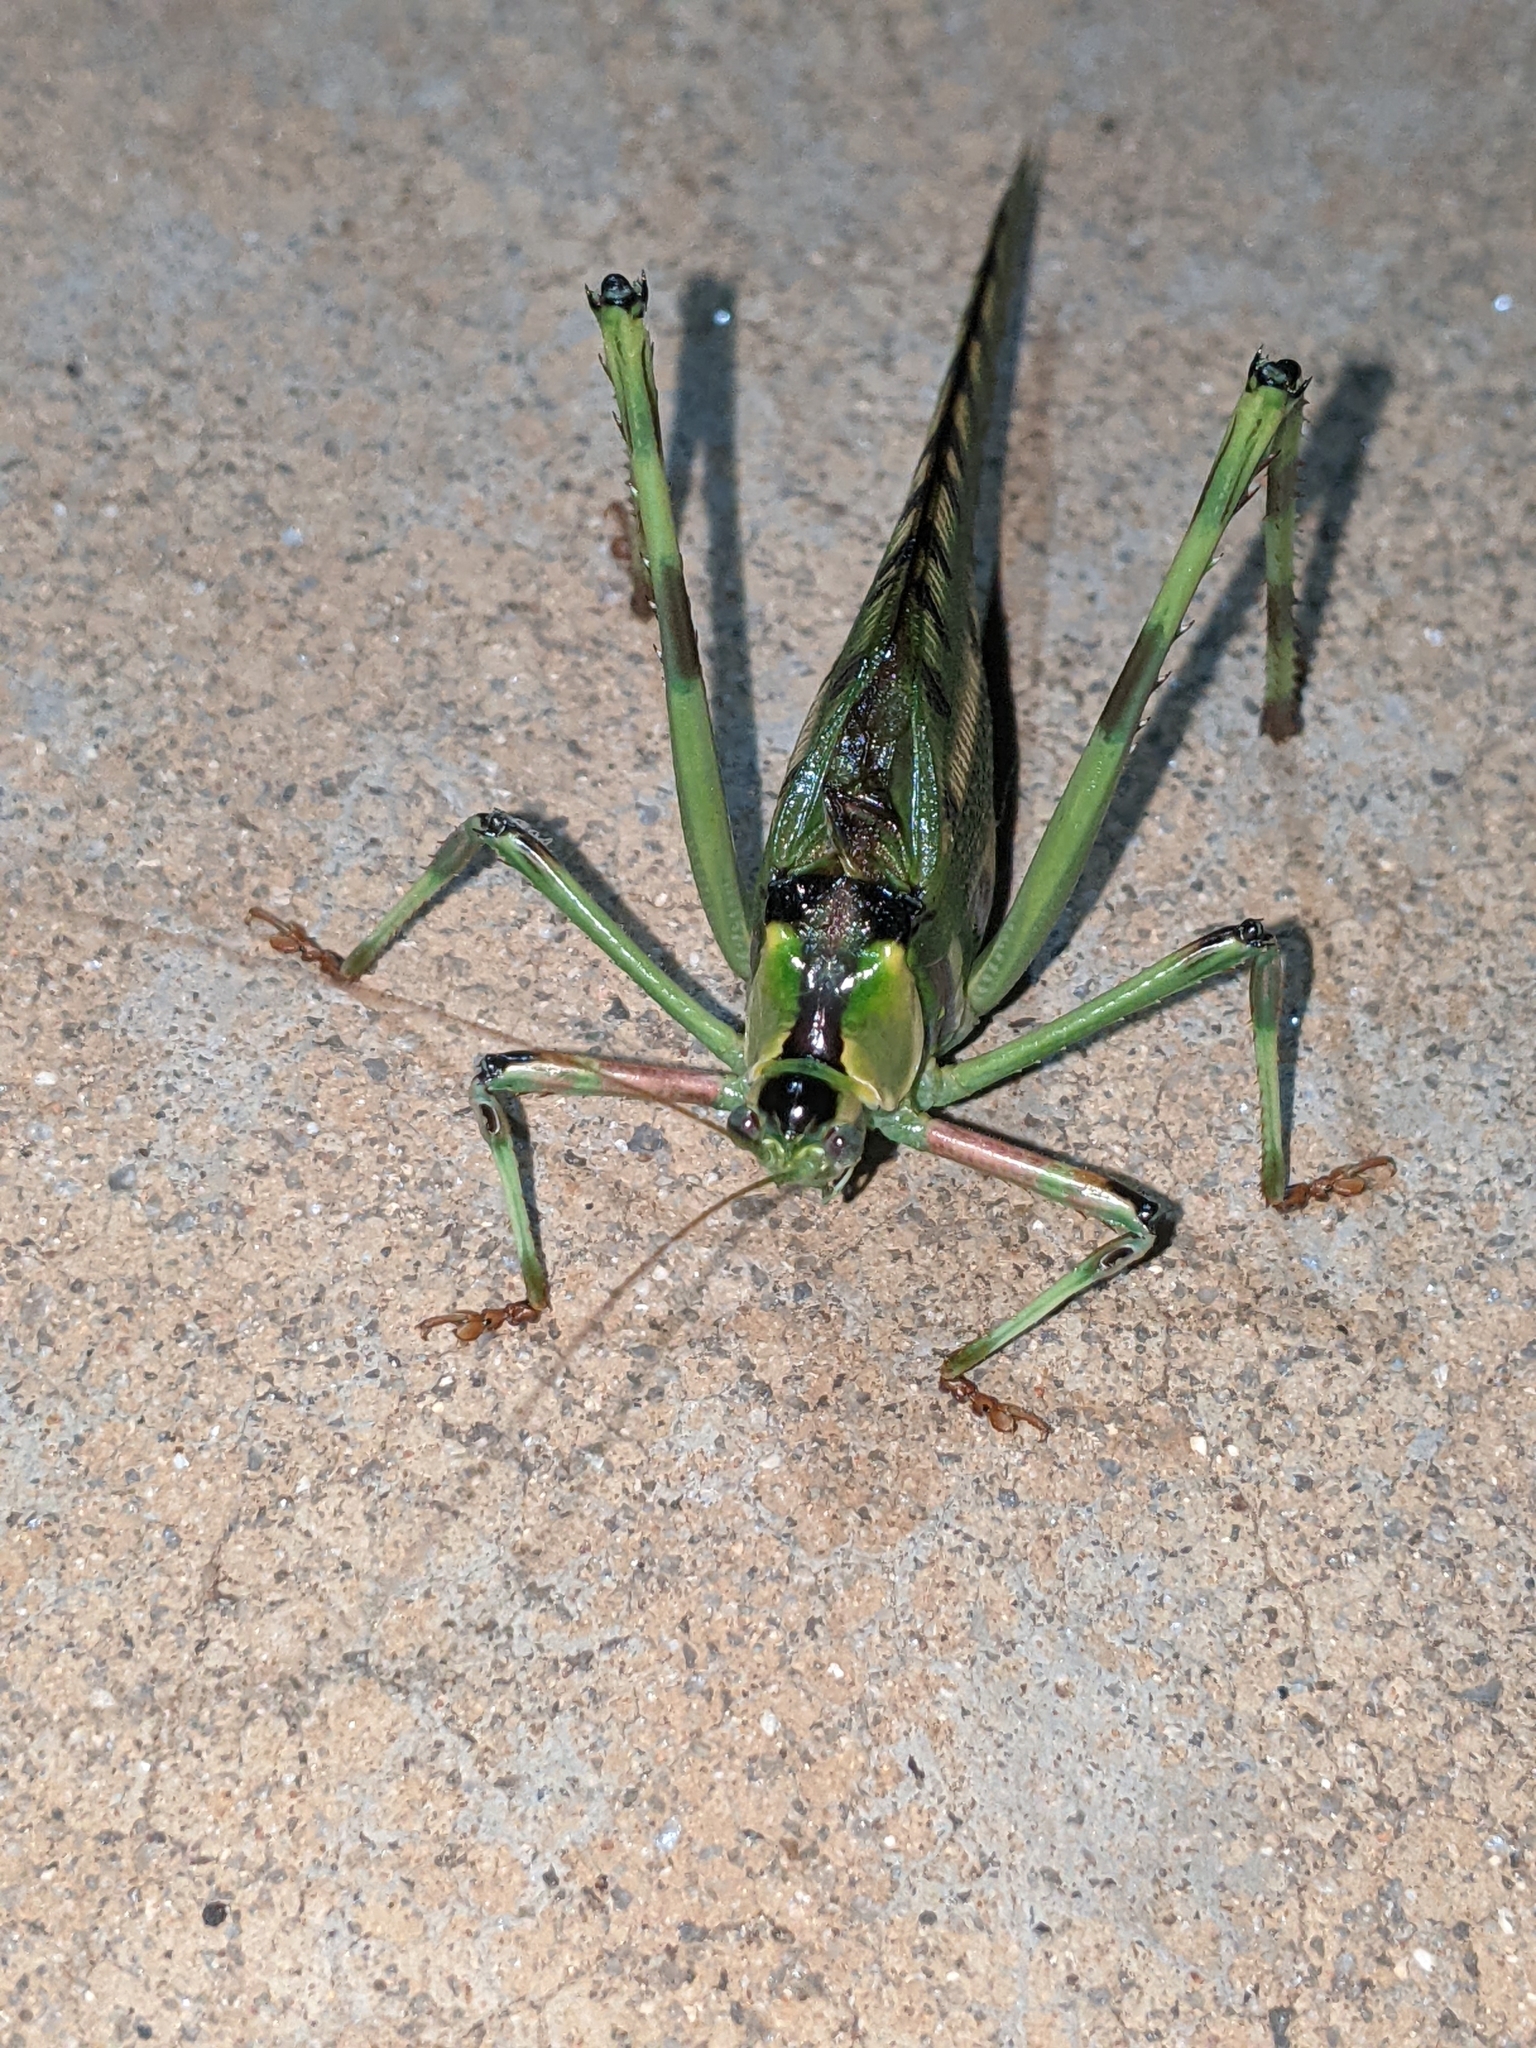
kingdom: Animalia
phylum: Arthropoda
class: Insecta
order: Orthoptera
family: Tettigoniidae
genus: Ephippitytha
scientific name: Ephippitytha maculata
